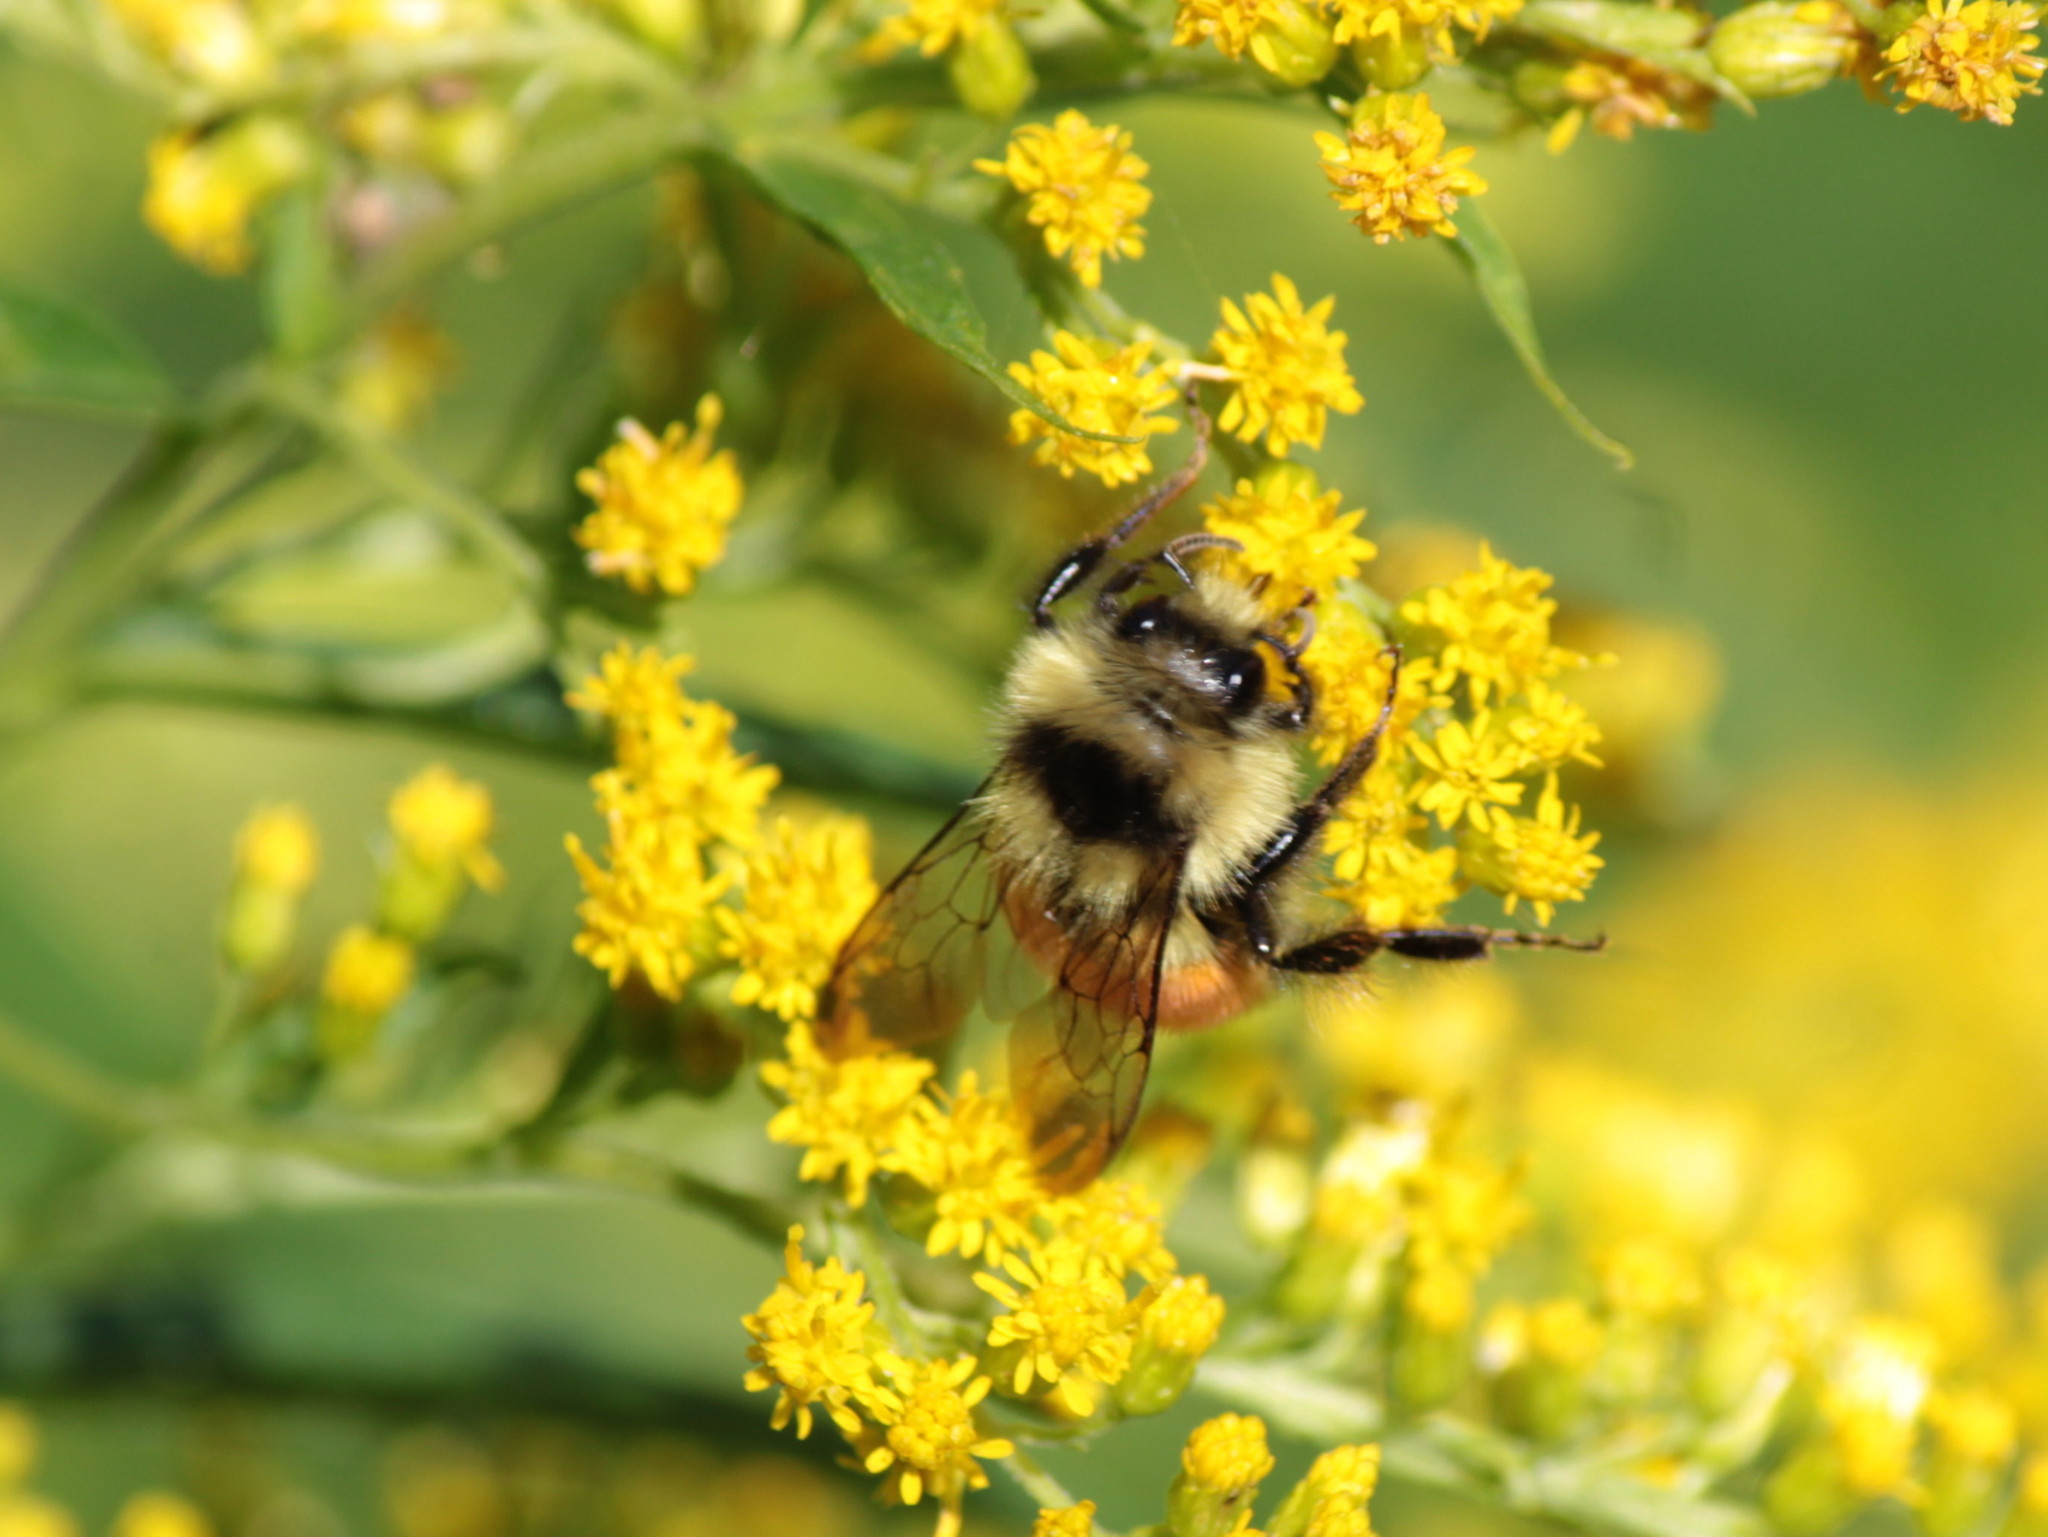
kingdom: Animalia
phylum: Arthropoda
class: Insecta
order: Hymenoptera
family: Apidae
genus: Bombus
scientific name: Bombus ternarius
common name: Tri-colored bumble bee
